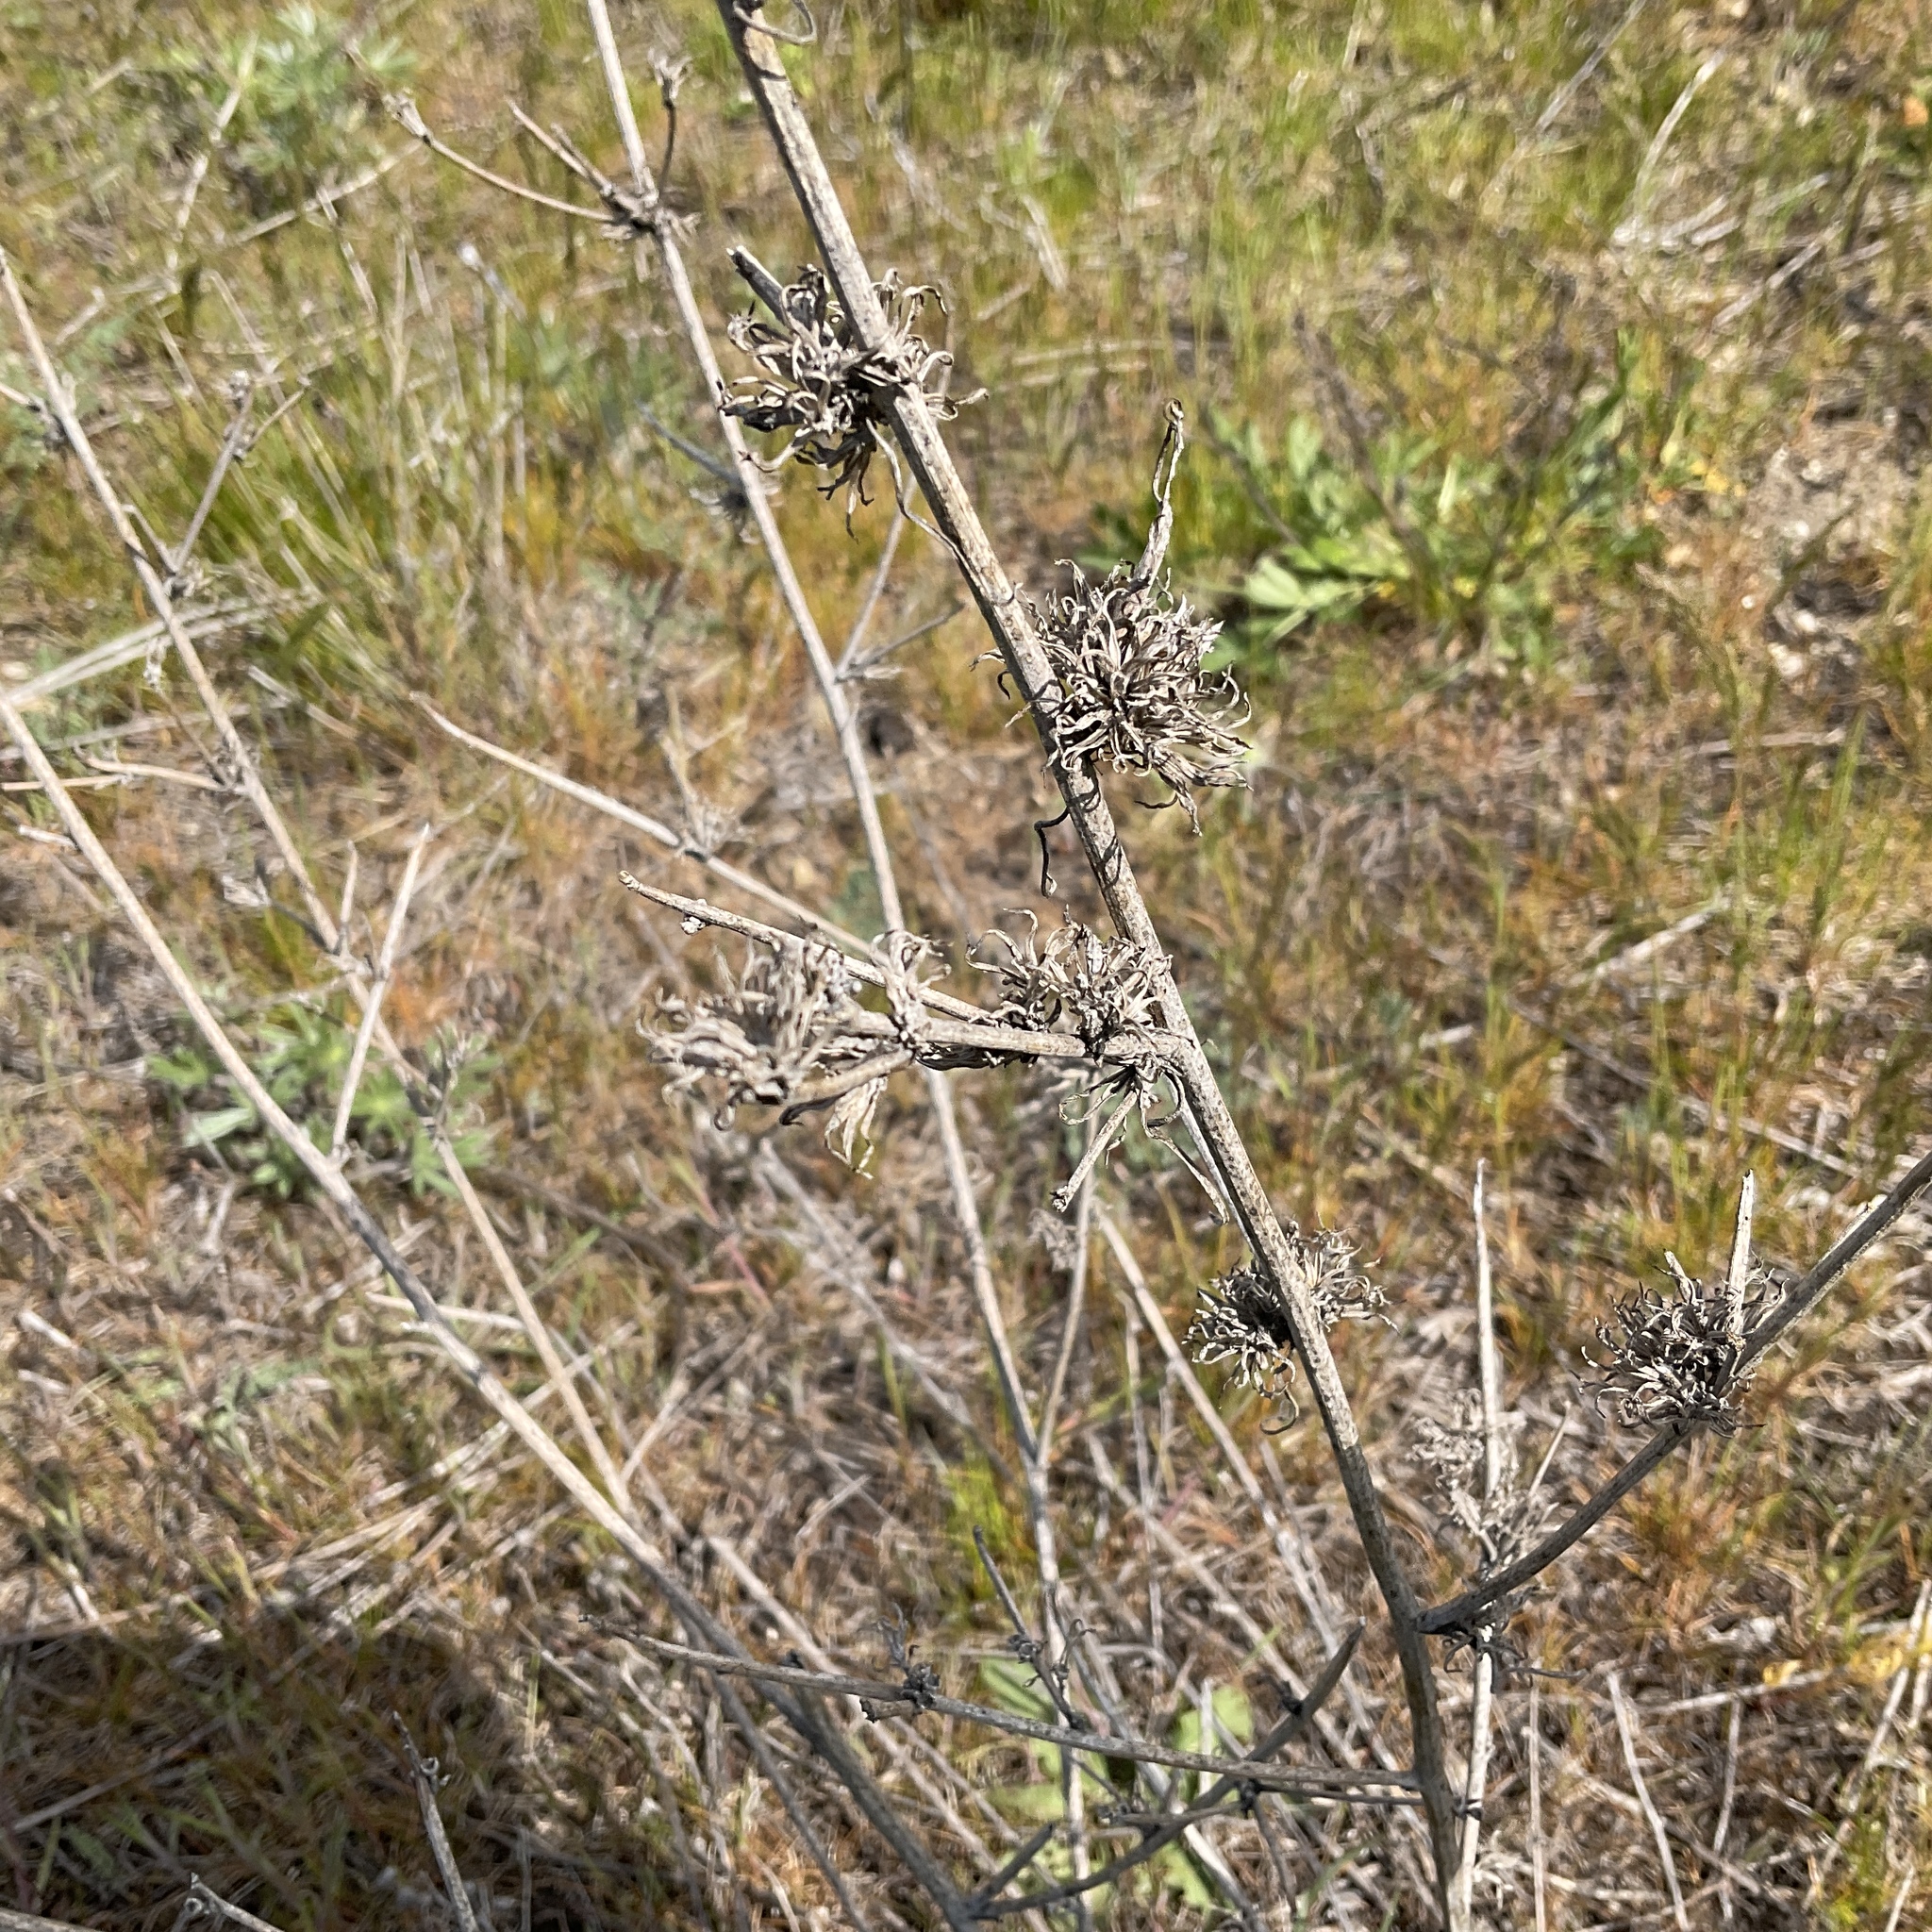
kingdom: Plantae
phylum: Tracheophyta
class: Magnoliopsida
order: Asterales
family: Asteraceae
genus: Chondrilla
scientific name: Chondrilla juncea
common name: Skeleton weed
